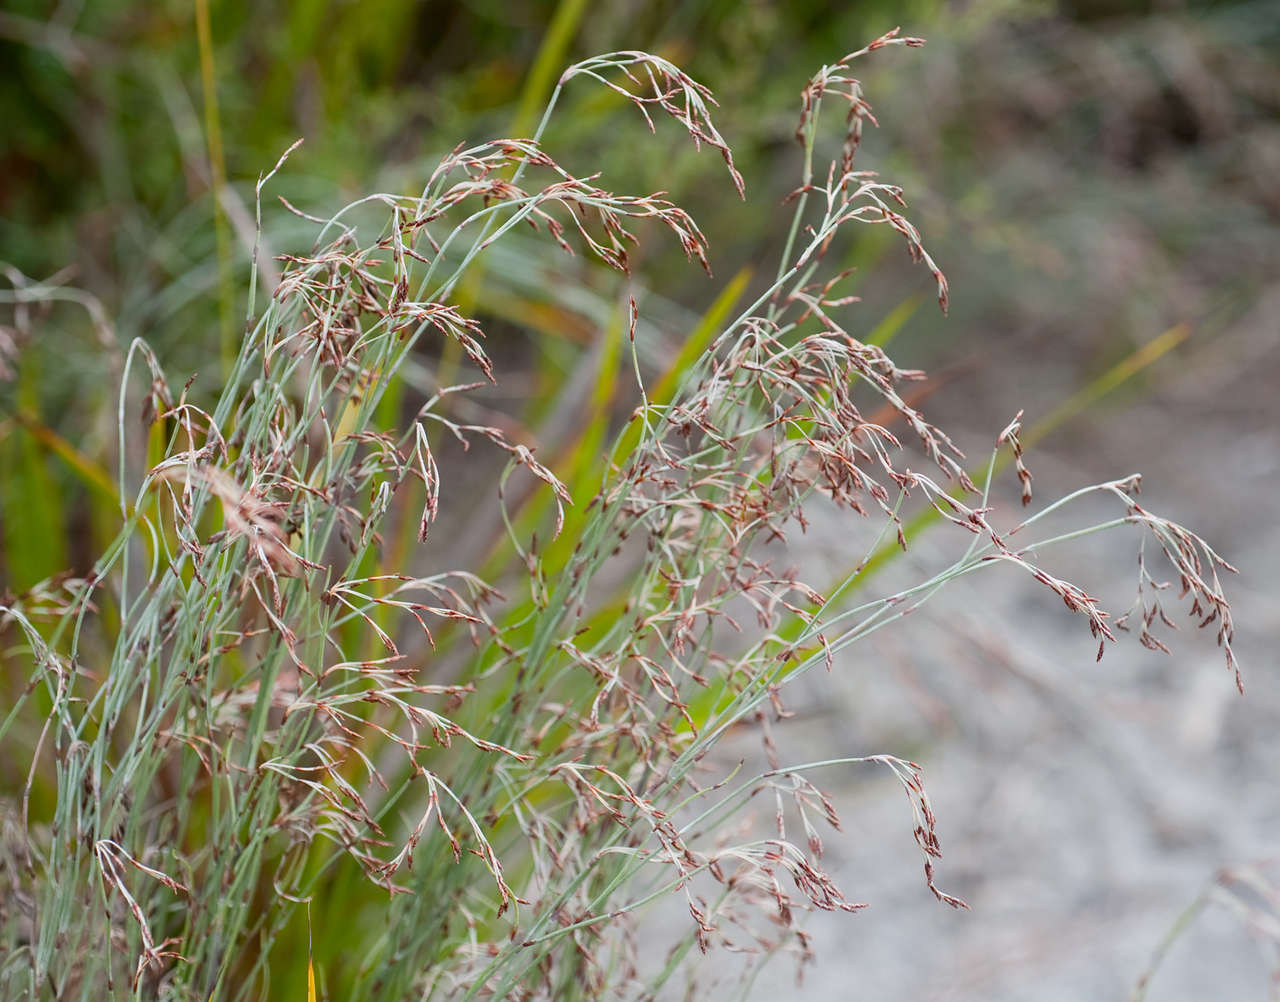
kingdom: Plantae
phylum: Tracheophyta
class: Liliopsida
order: Poales
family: Restionaceae
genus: Hypolaena
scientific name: Hypolaena fastigiata
